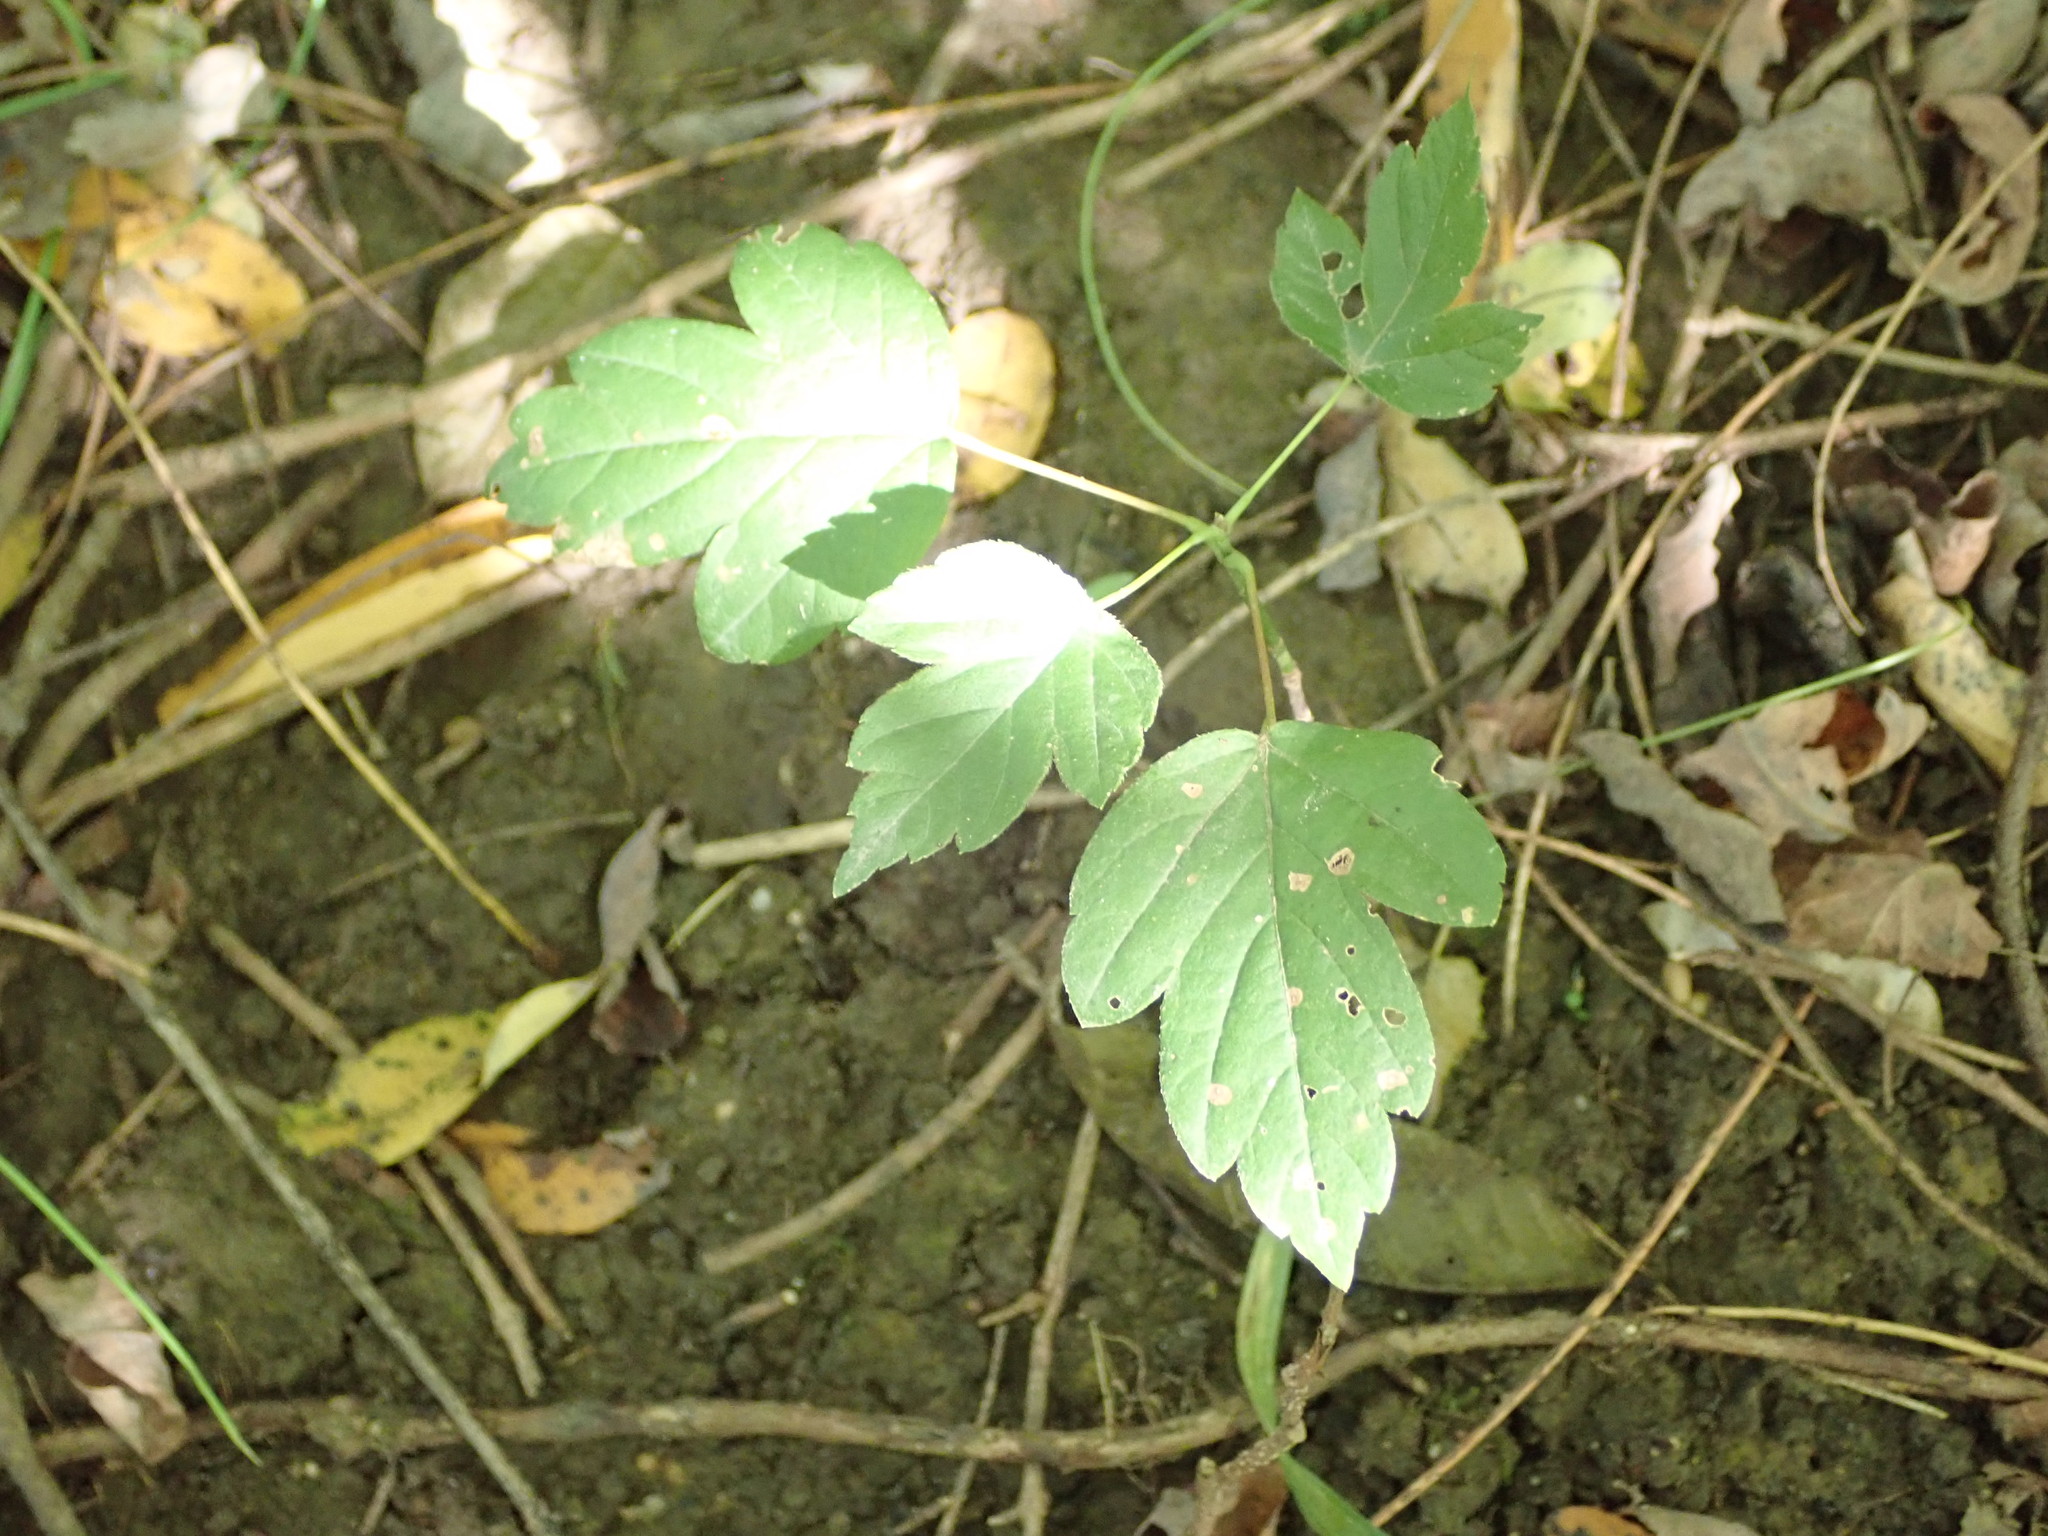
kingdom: Plantae
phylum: Tracheophyta
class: Magnoliopsida
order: Sapindales
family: Sapindaceae
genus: Acer
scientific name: Acer negundo
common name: Ashleaf maple
